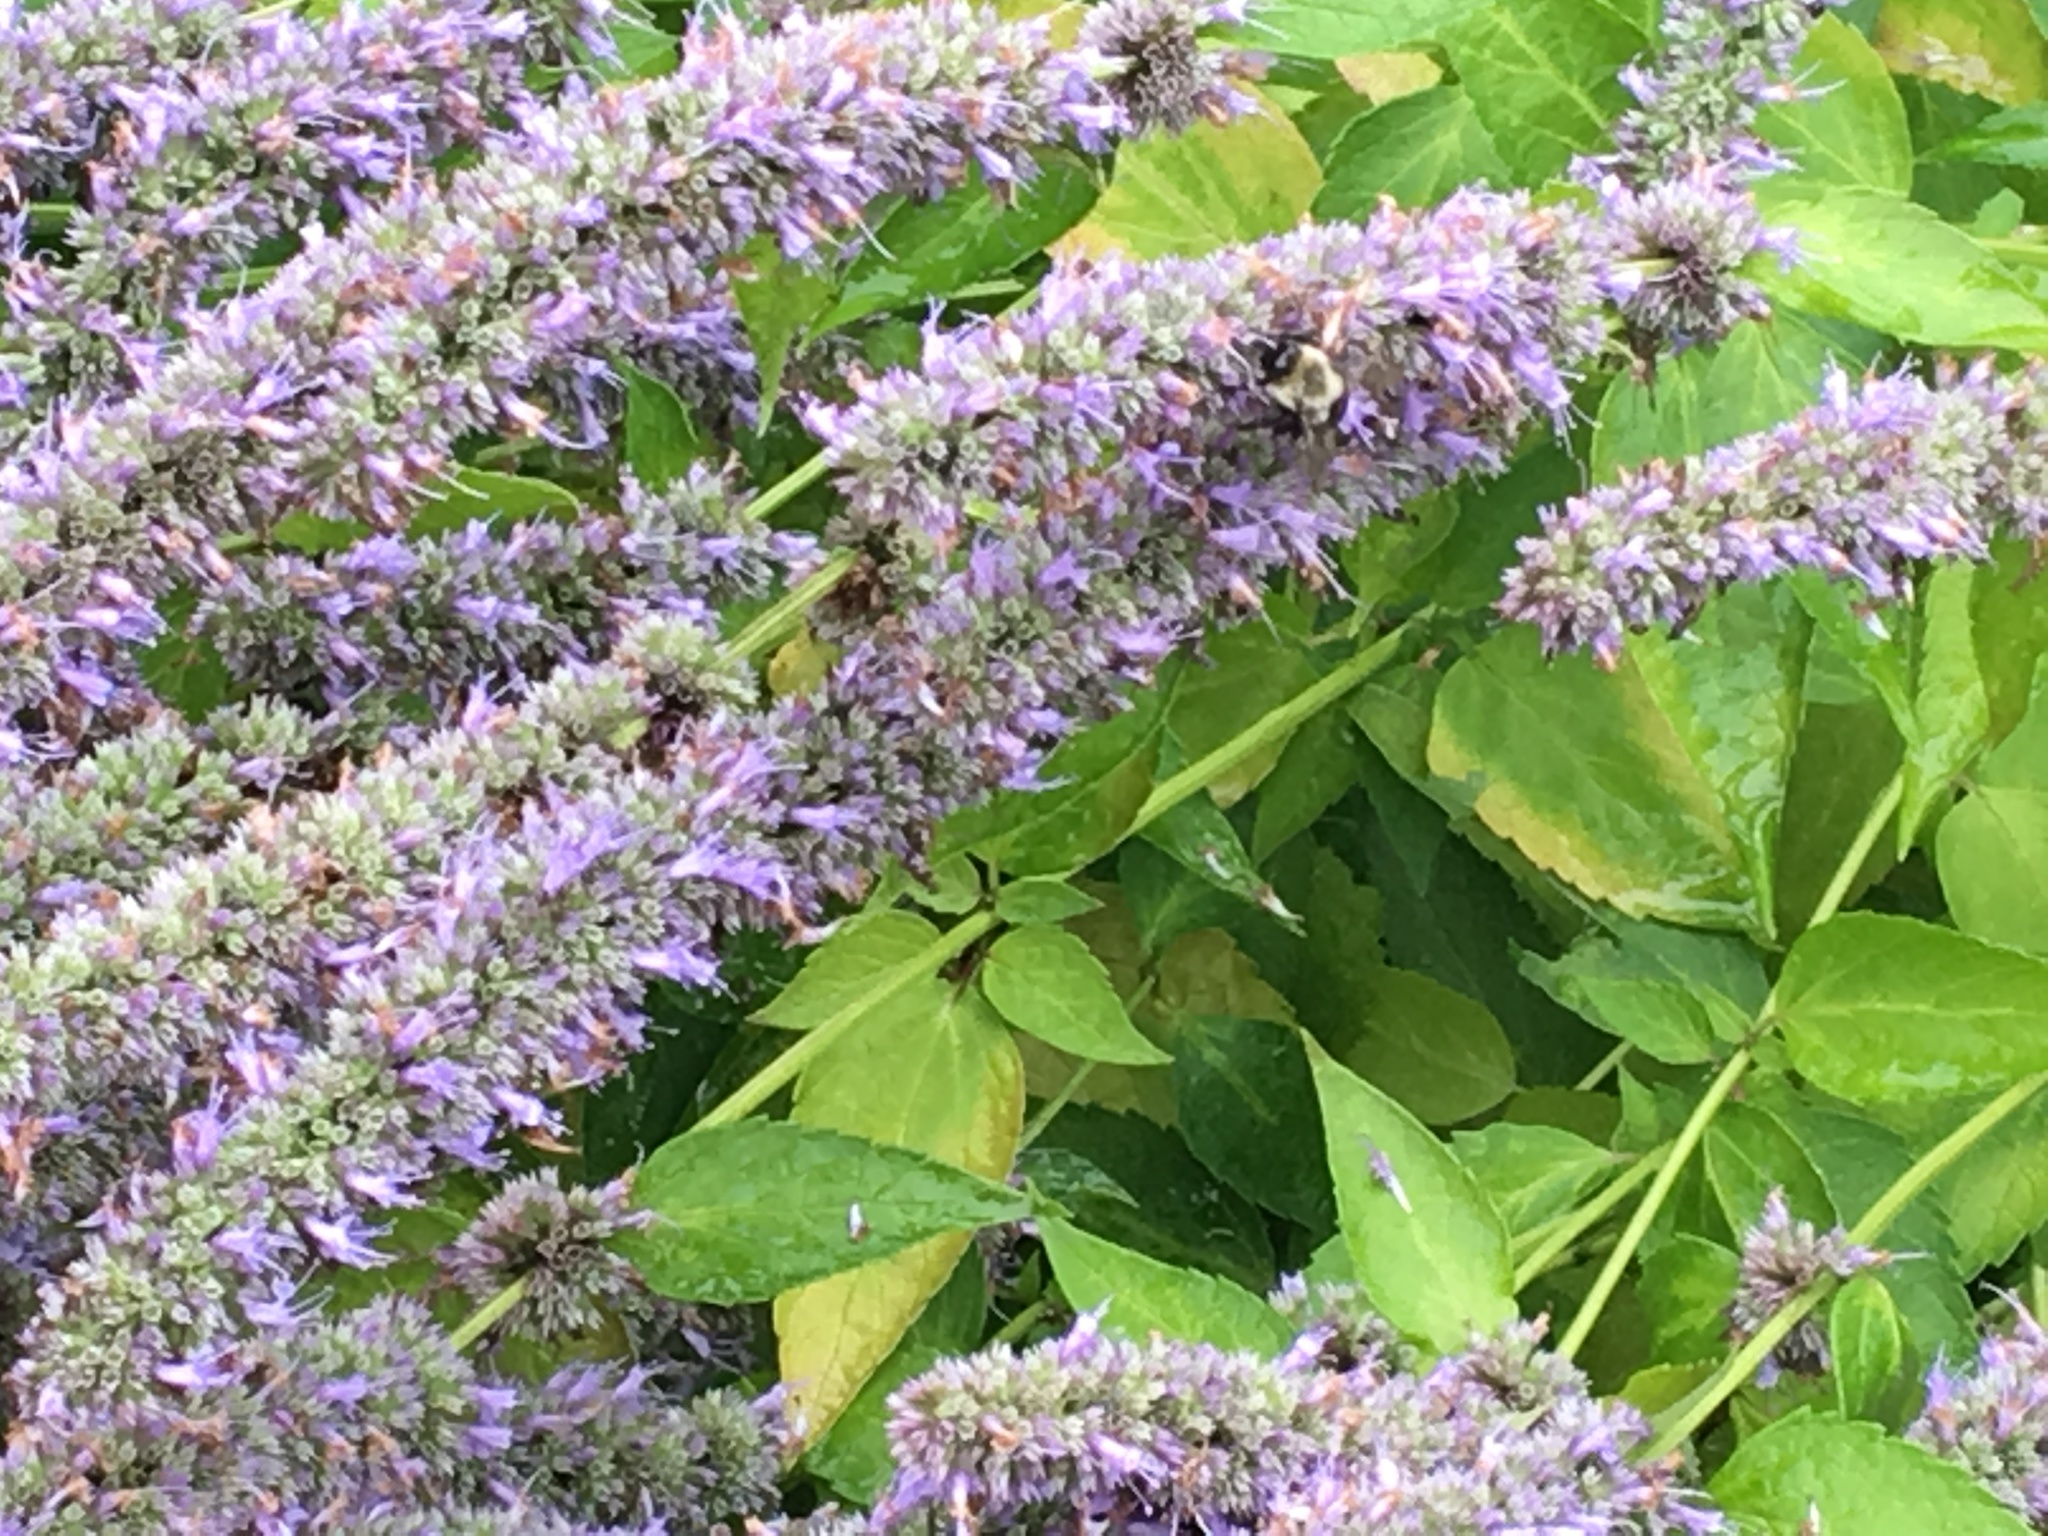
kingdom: Animalia
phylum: Arthropoda
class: Insecta
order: Hymenoptera
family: Apidae
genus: Bombus
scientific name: Bombus impatiens
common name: Common eastern bumble bee
